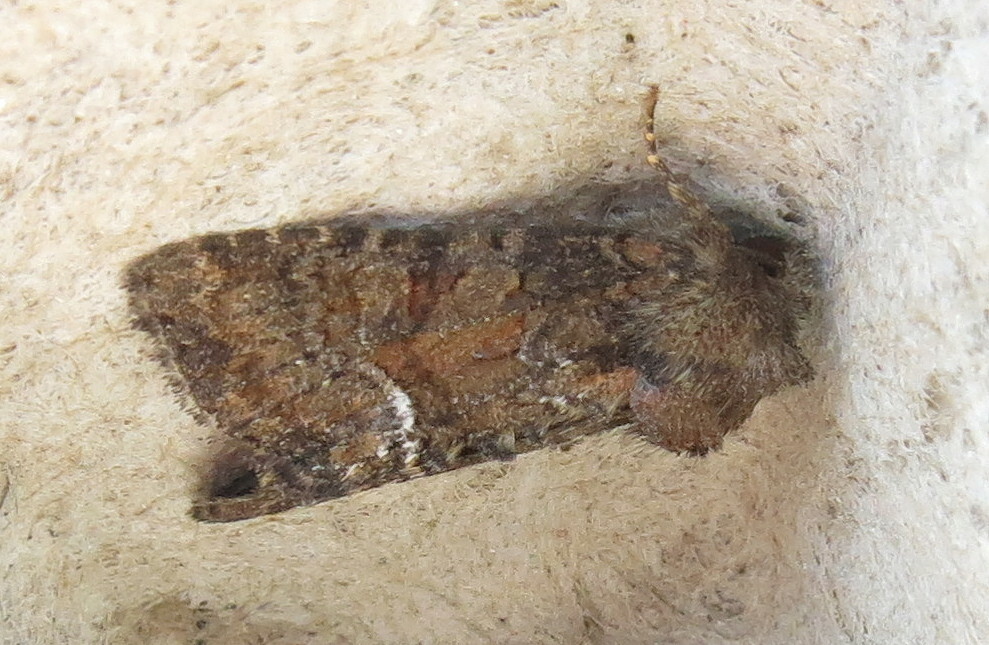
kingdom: Animalia
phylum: Arthropoda
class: Insecta
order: Lepidoptera
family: Noctuidae
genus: Oligia
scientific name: Oligia latruncula
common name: Tawny marbled minor
